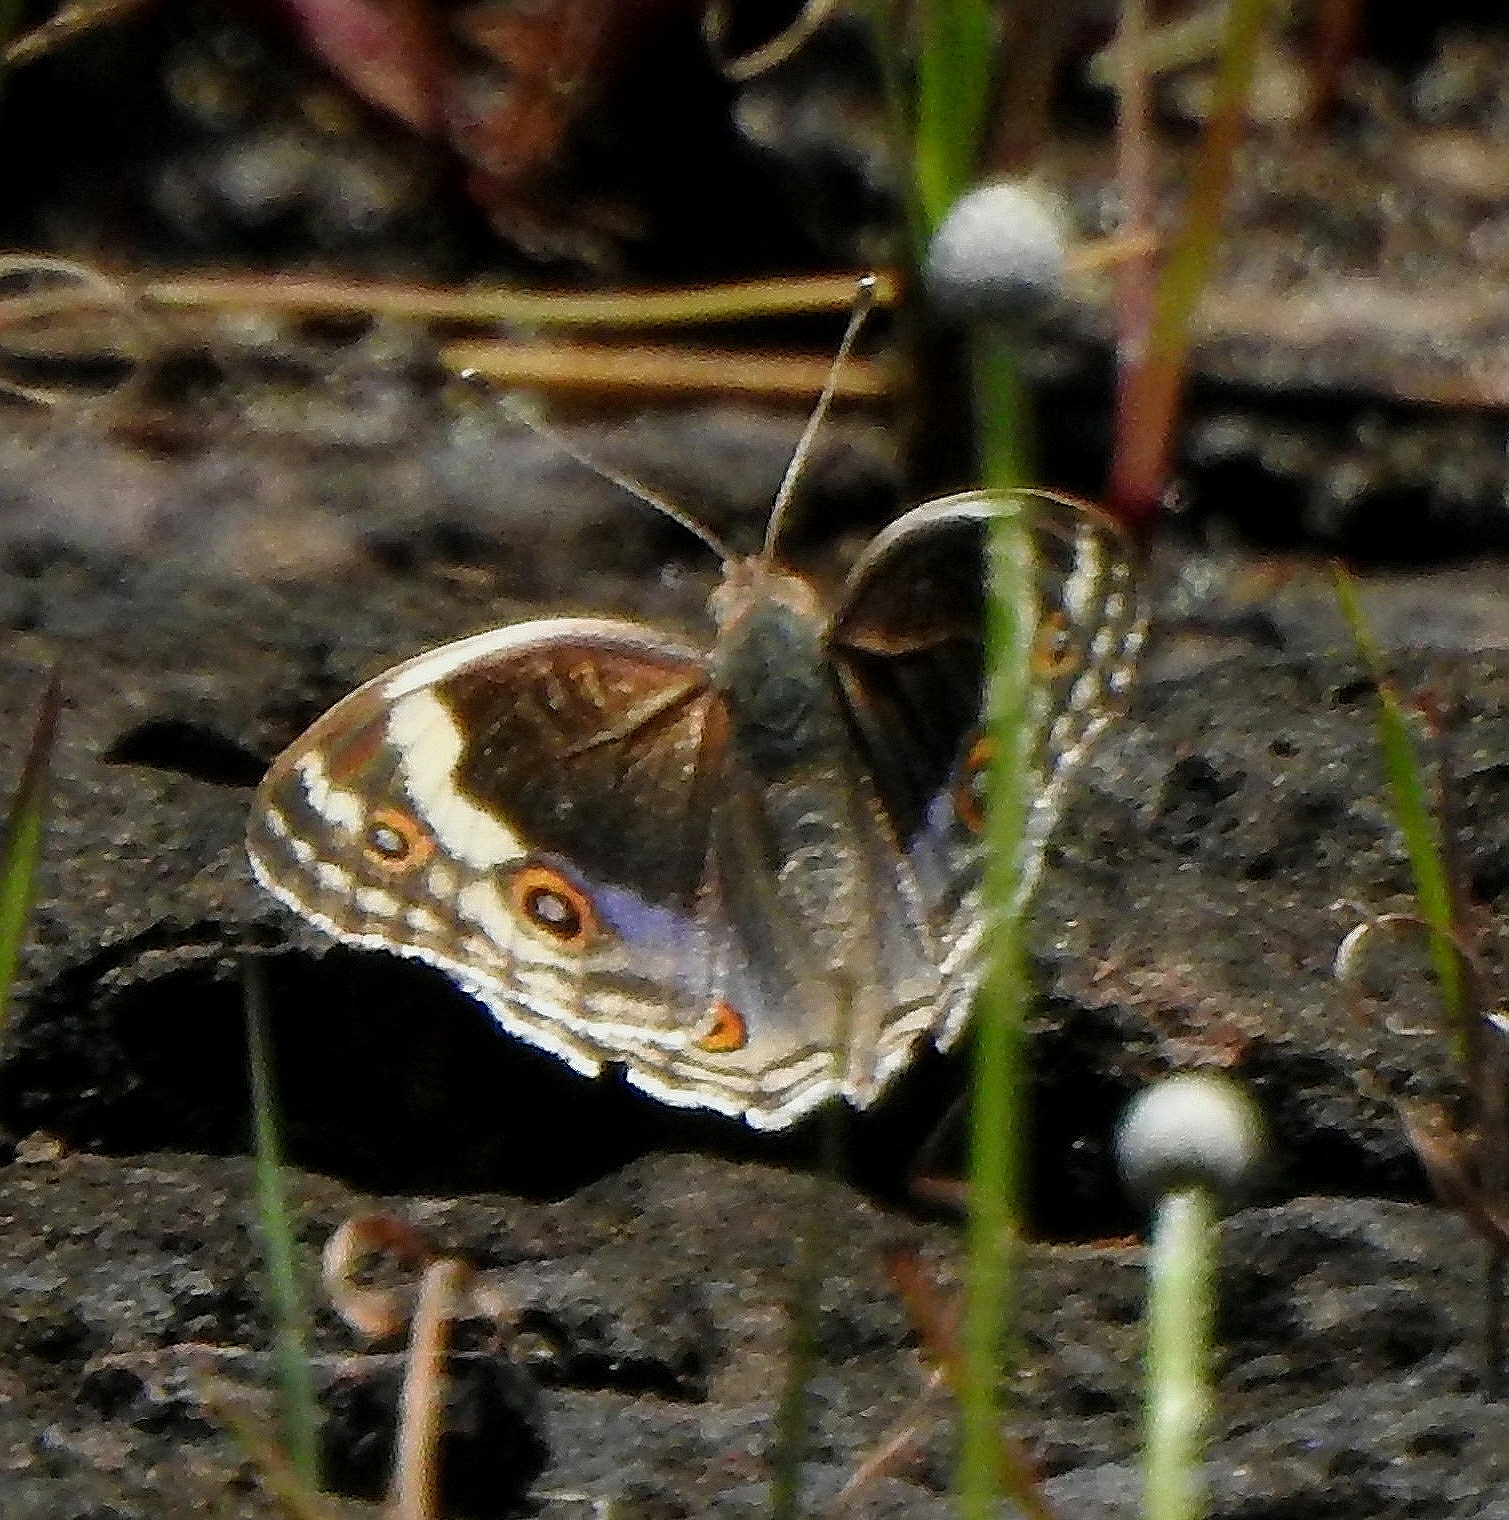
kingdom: Animalia
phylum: Arthropoda
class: Insecta
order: Lepidoptera
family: Nymphalidae
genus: Junonia
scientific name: Junonia orithya
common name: Blue pansy
